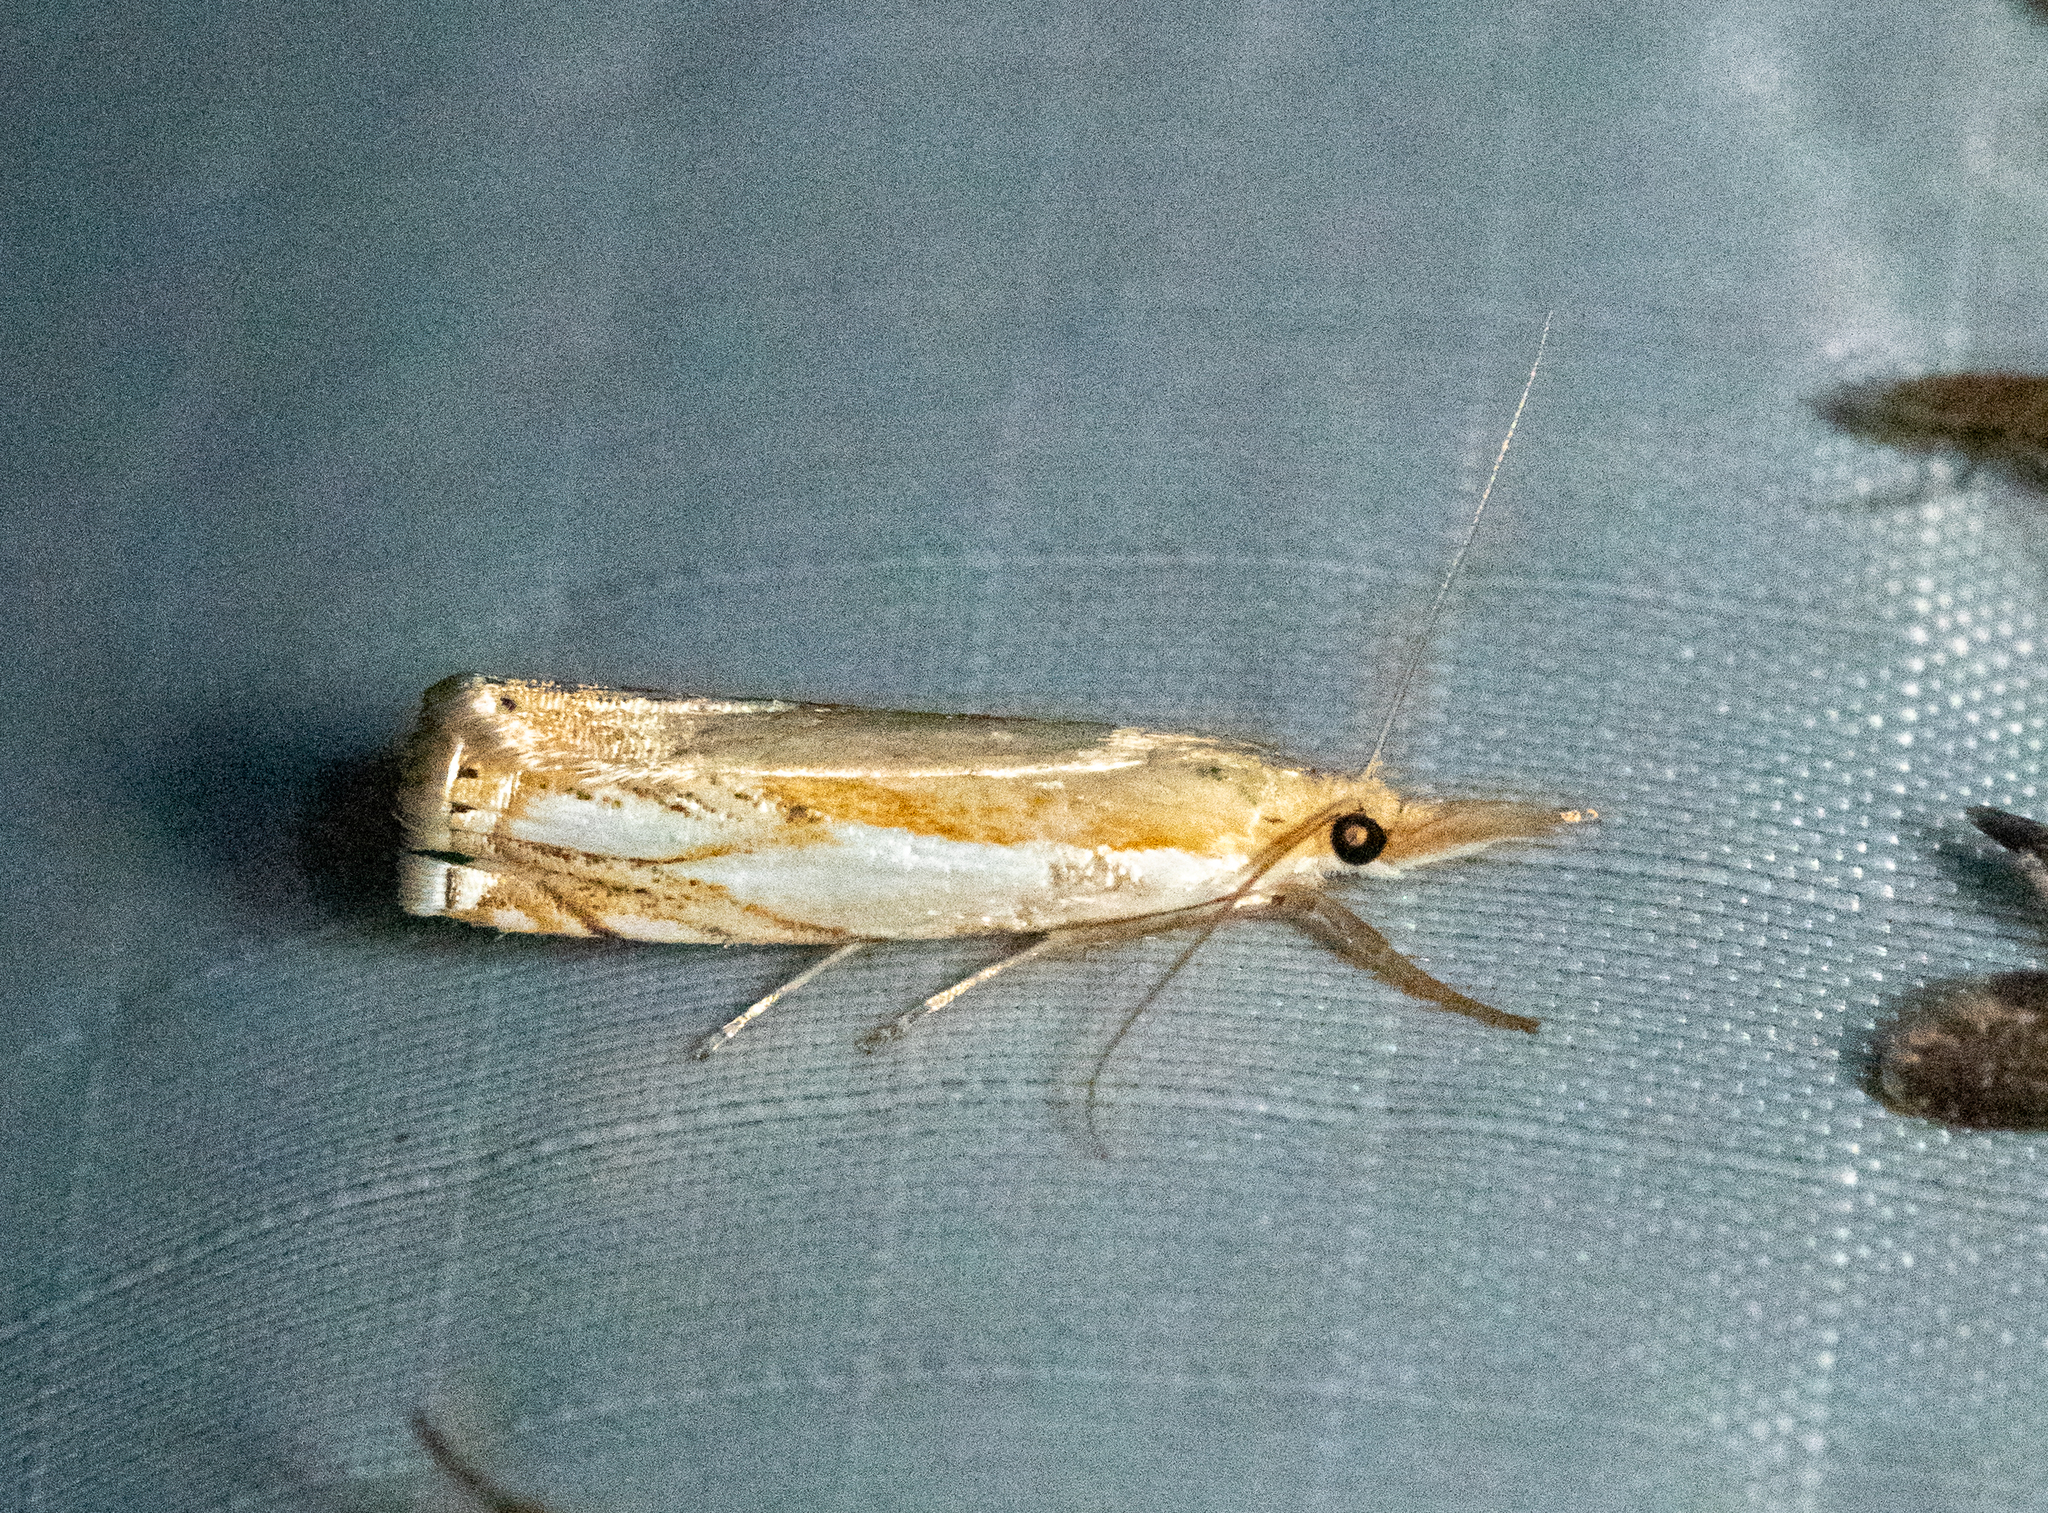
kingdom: Animalia
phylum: Arthropoda
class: Insecta
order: Lepidoptera
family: Crambidae
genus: Crambus
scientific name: Crambus agitatellus
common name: Double-banded grass-veneer
